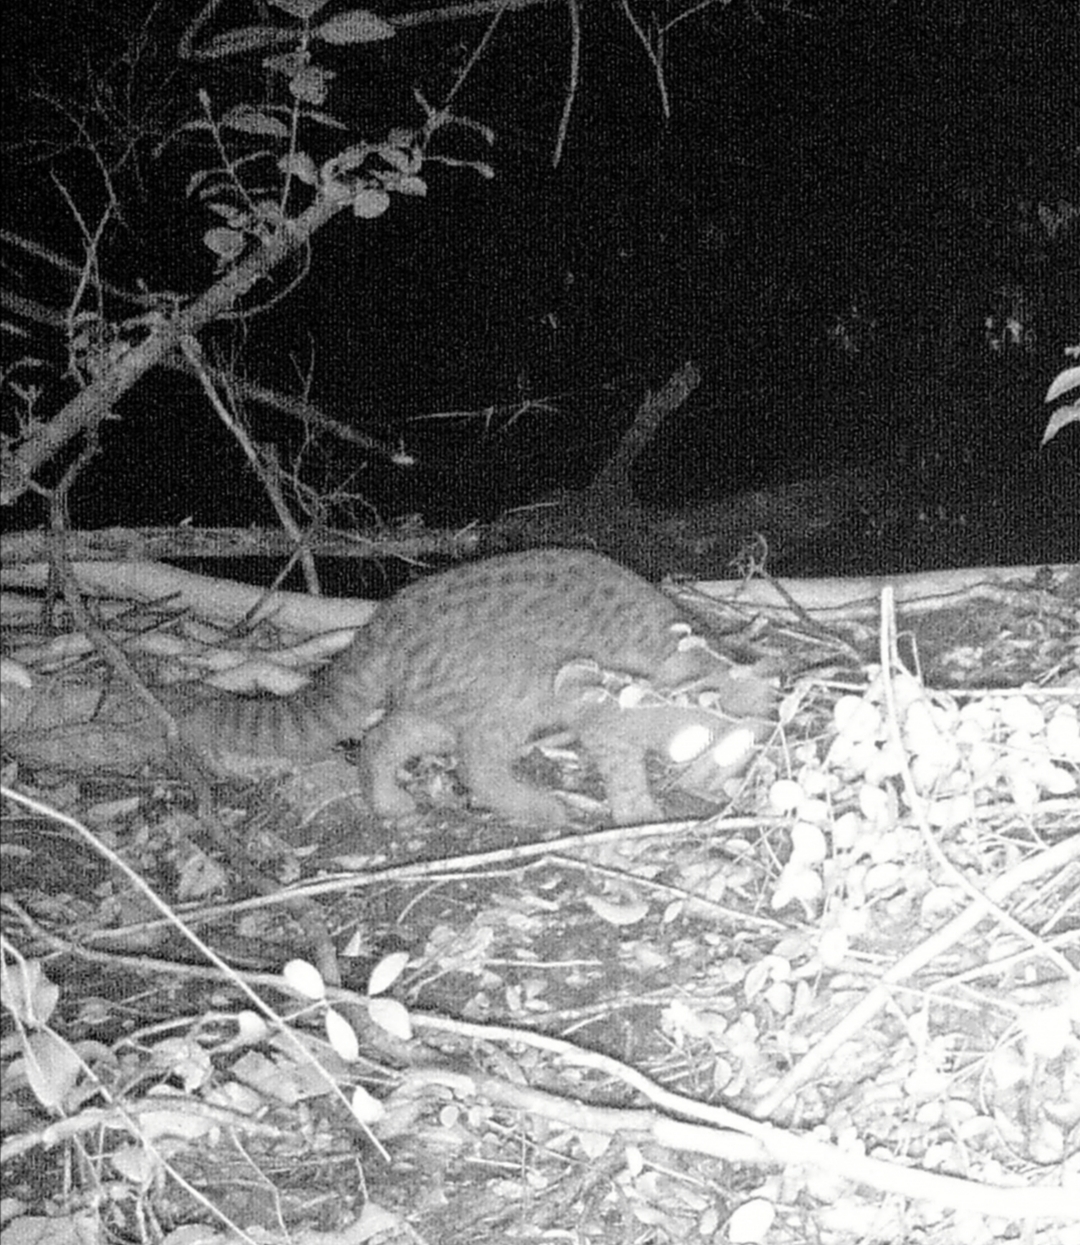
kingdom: Animalia
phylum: Chordata
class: Mammalia
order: Carnivora
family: Felidae
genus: Leopardus
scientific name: Leopardus guigna
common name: Kodkod
